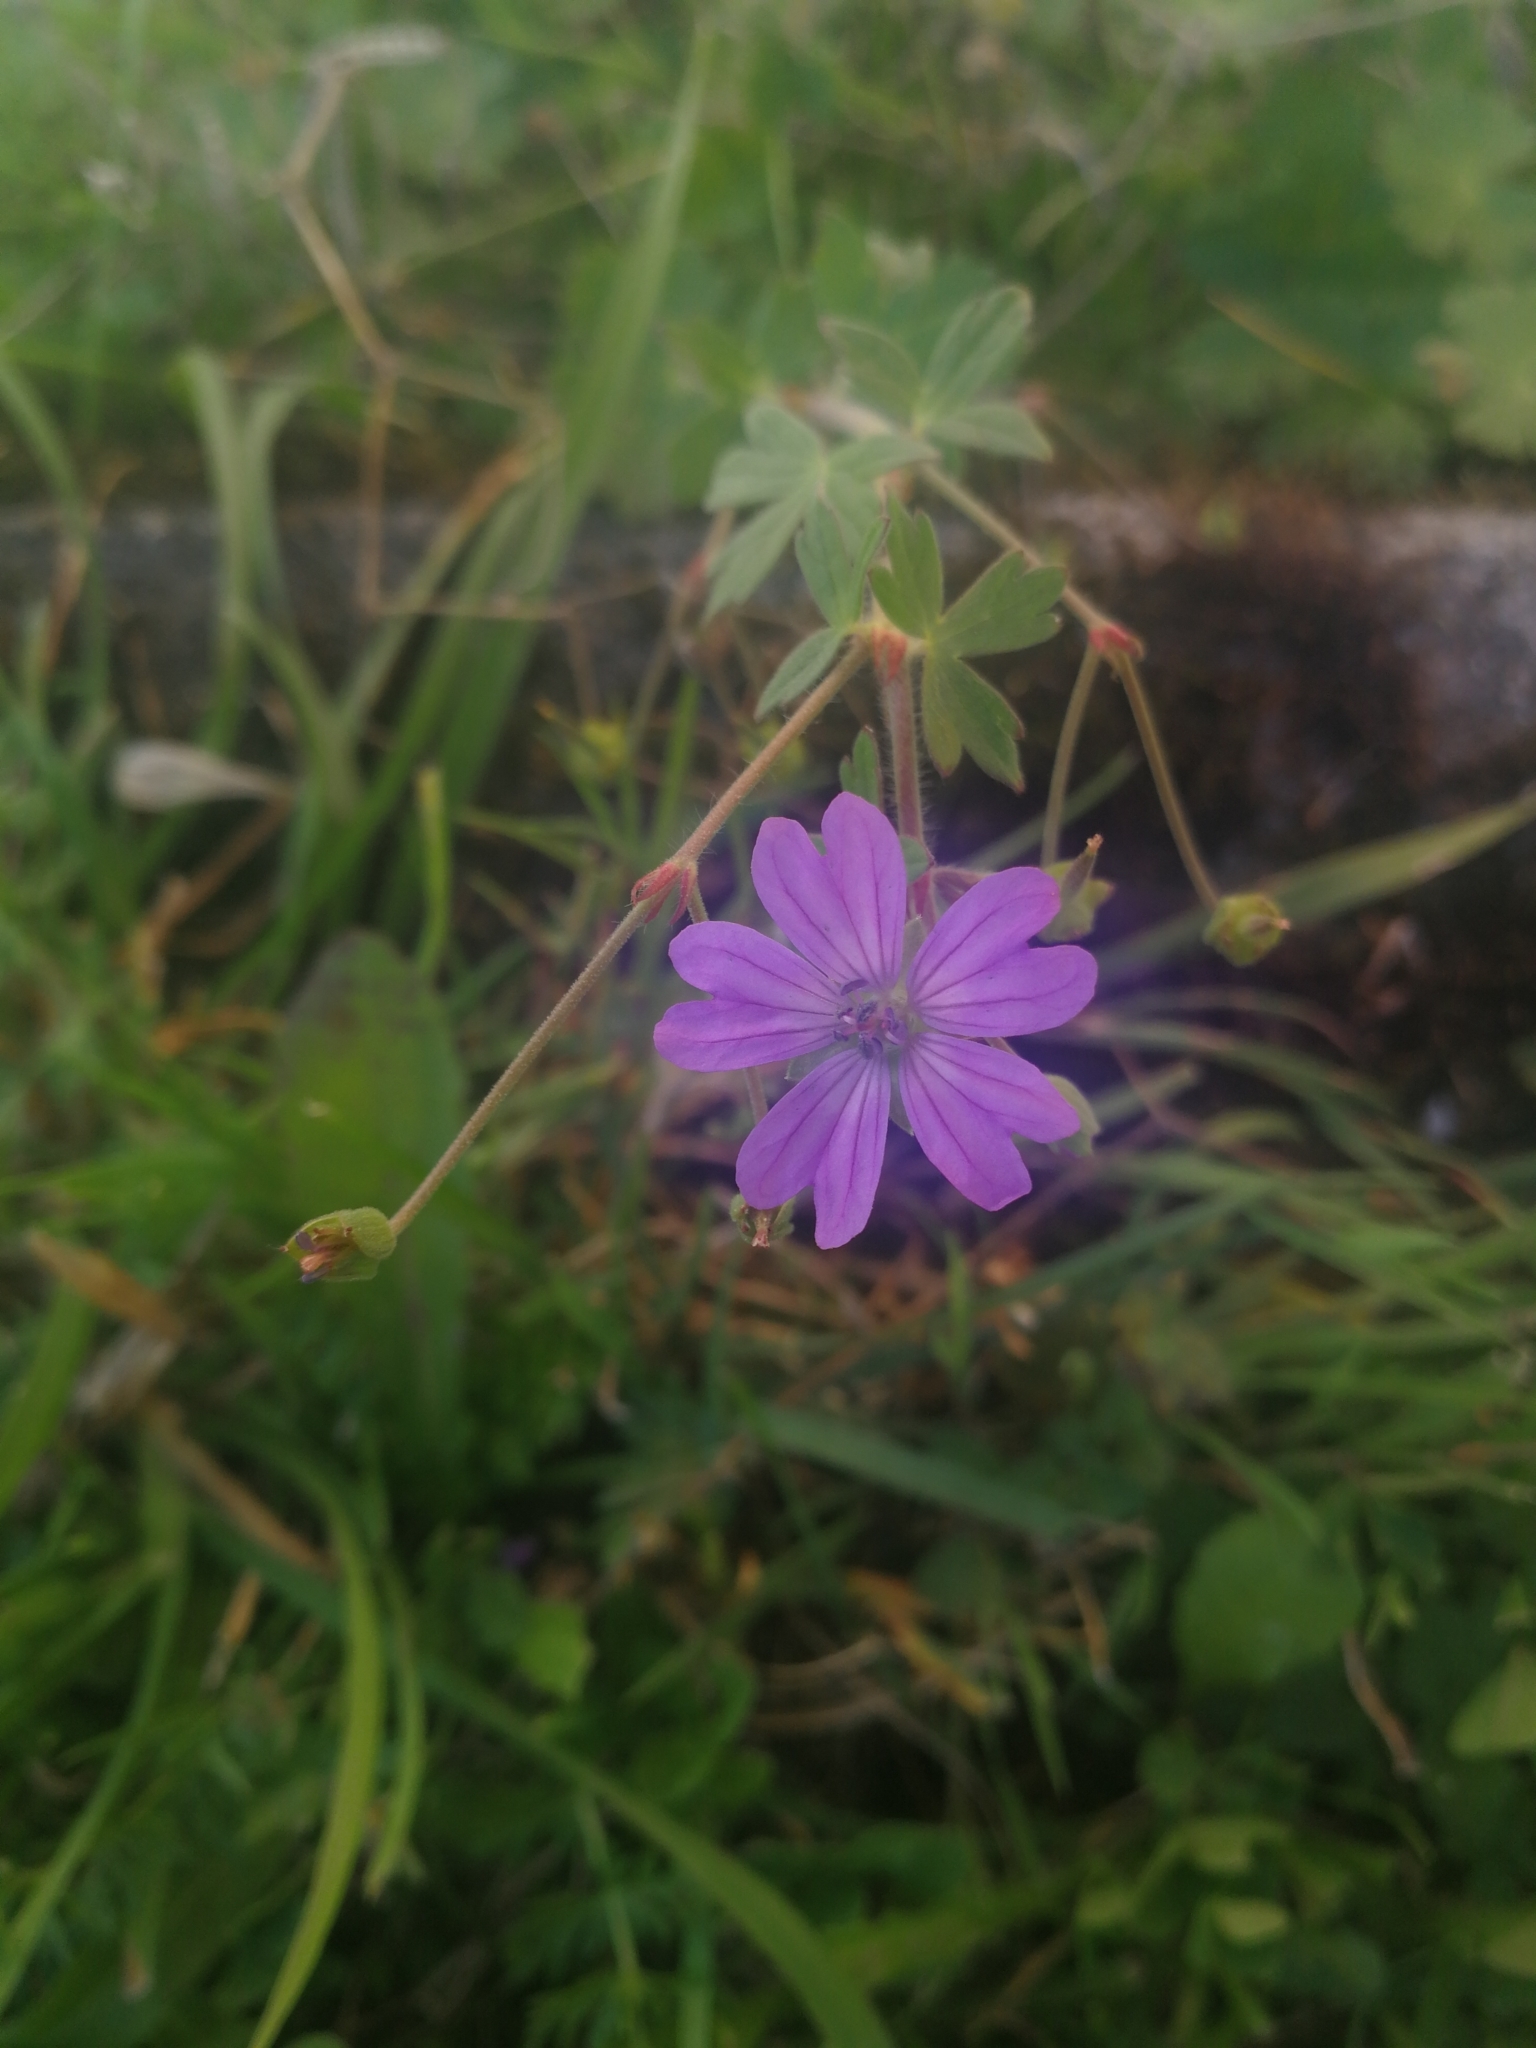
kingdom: Plantae
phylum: Tracheophyta
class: Magnoliopsida
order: Geraniales
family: Geraniaceae
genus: Geranium
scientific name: Geranium pyrenaicum
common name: Hedgerow crane's-bill
